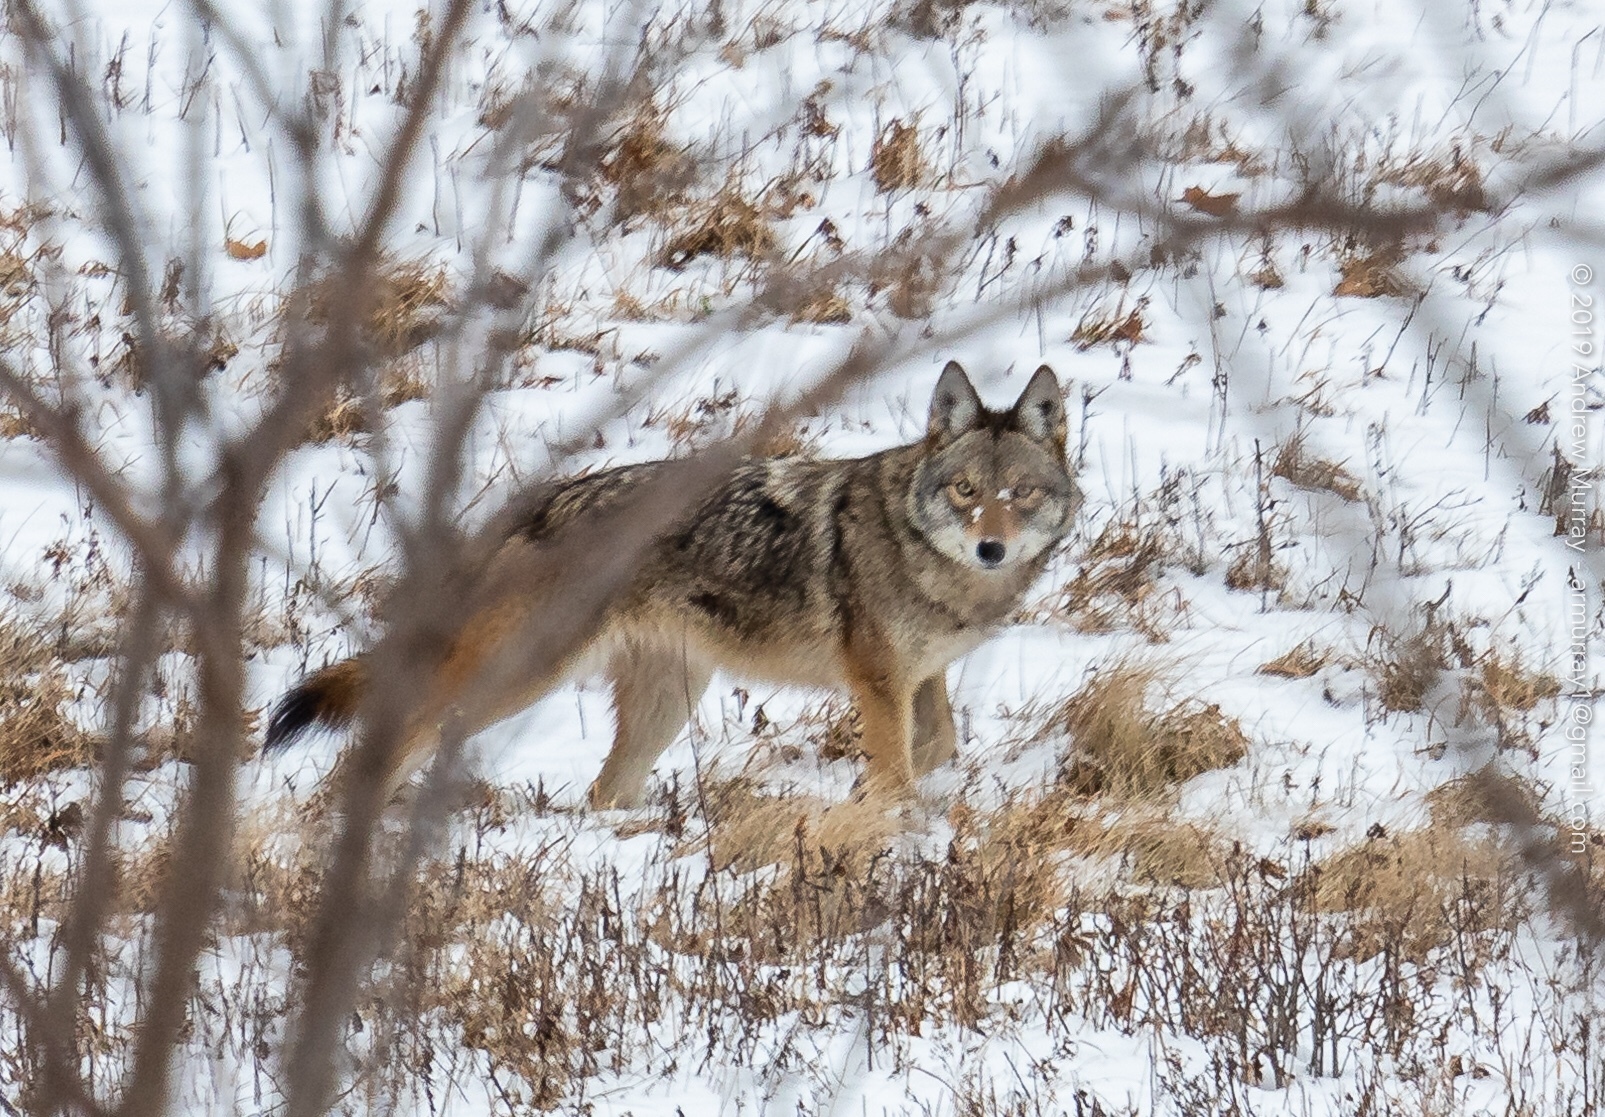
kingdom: Animalia
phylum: Chordata
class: Mammalia
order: Carnivora
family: Canidae
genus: Canis
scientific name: Canis latrans
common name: Coyote
